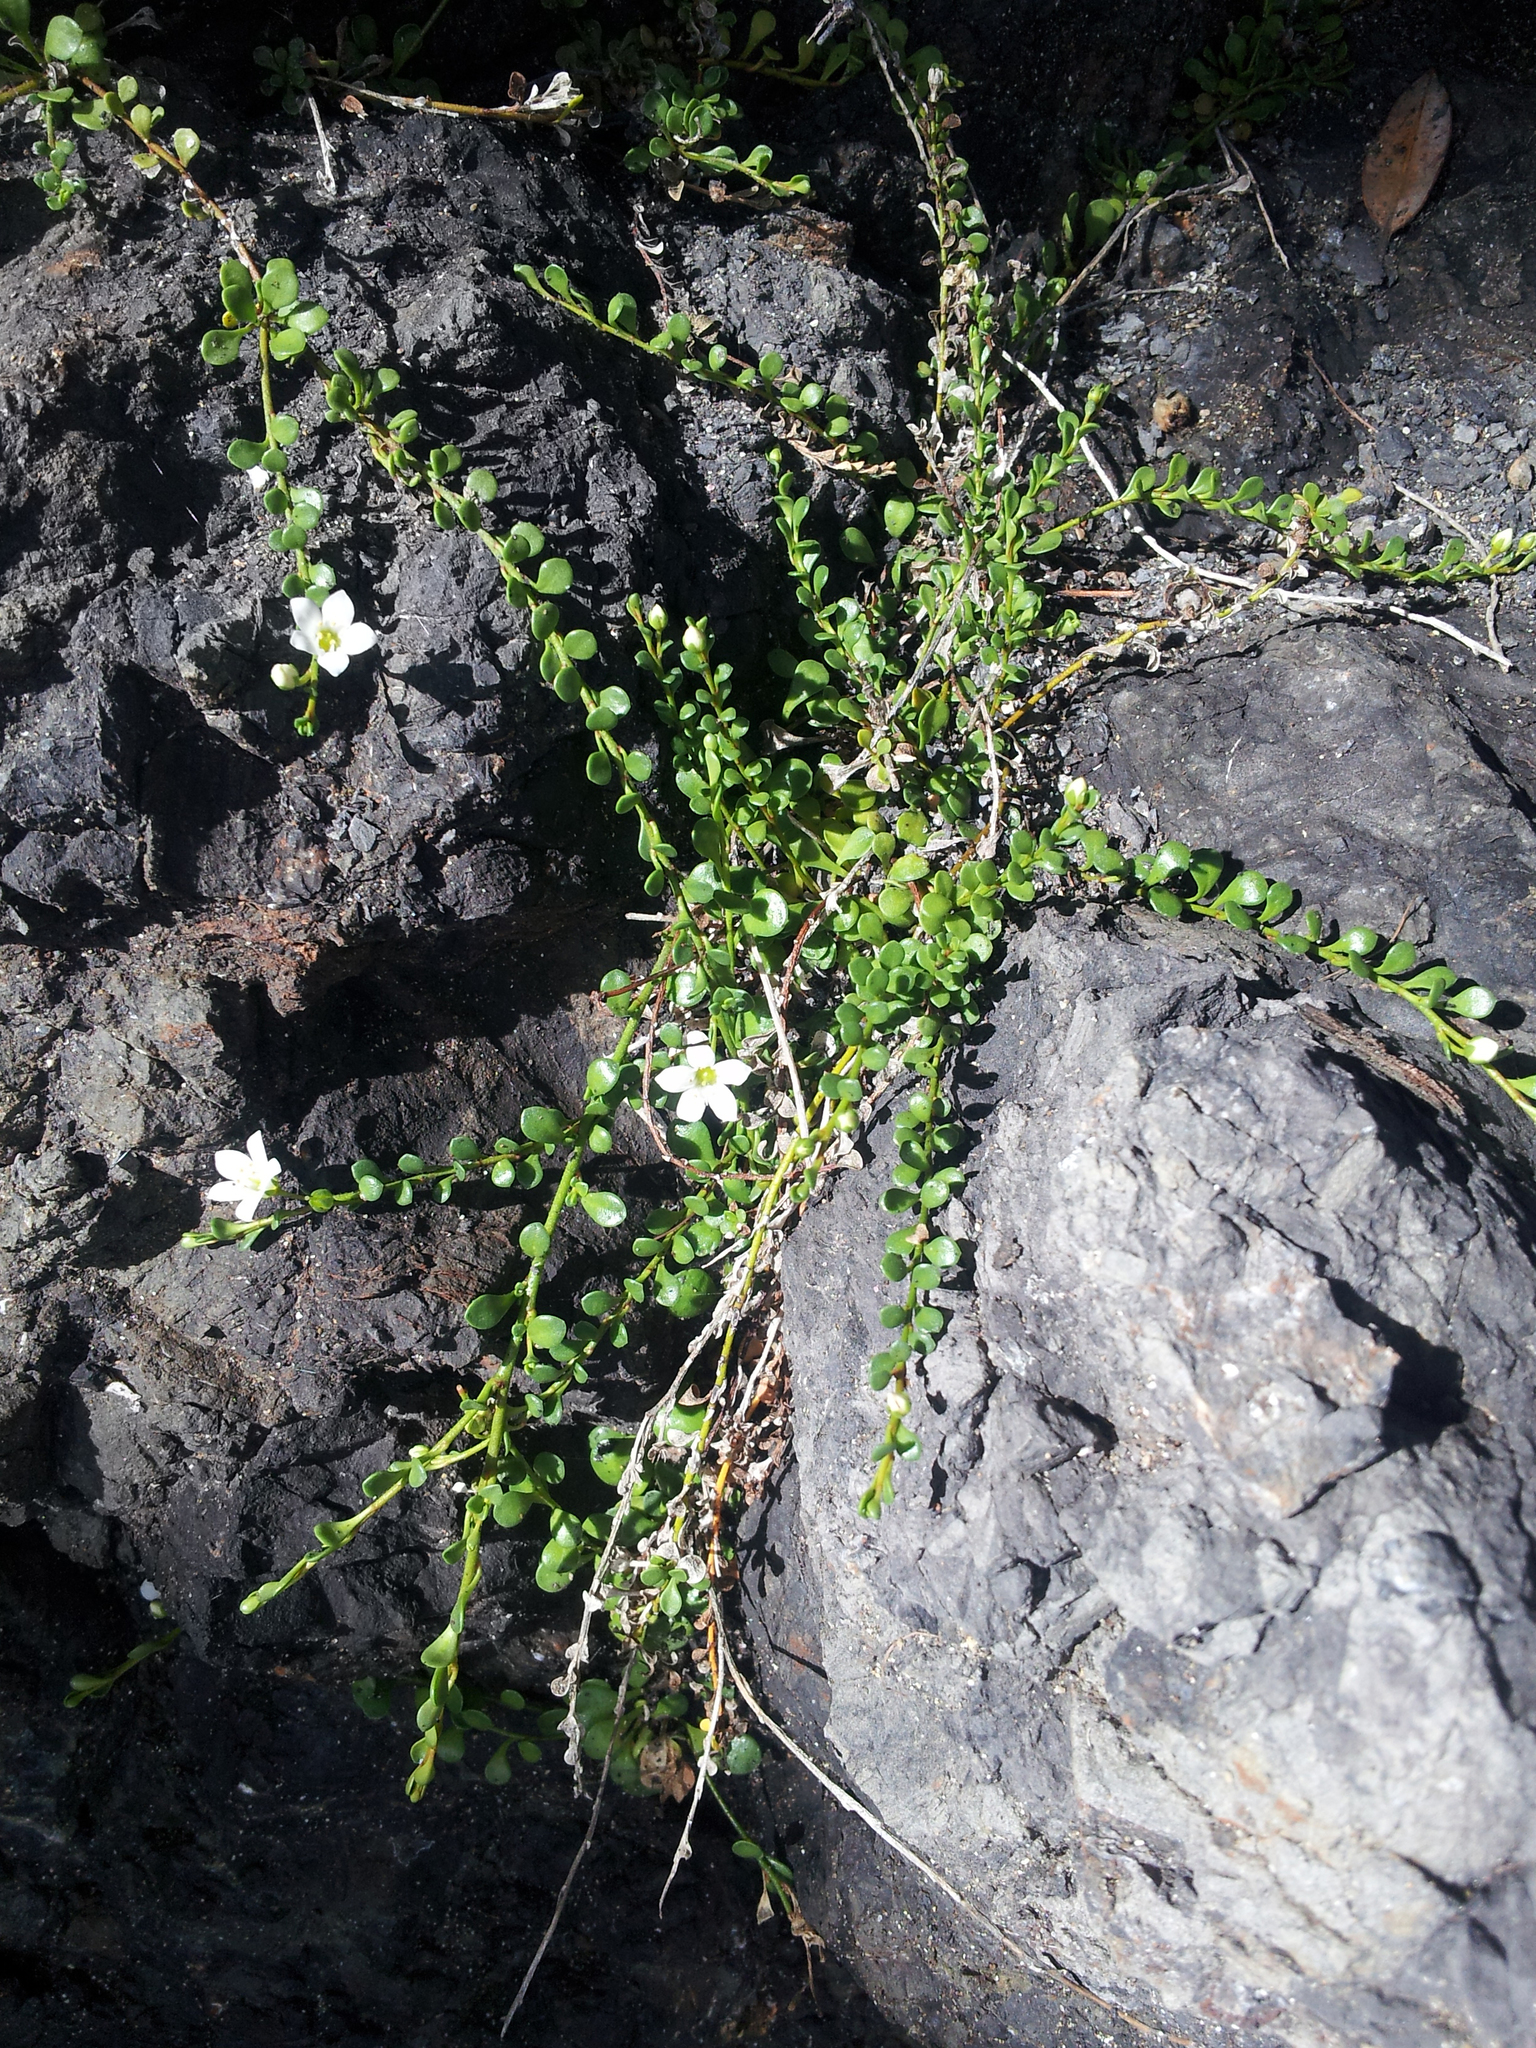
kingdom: Plantae
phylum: Tracheophyta
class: Magnoliopsida
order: Ericales
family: Primulaceae
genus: Samolus
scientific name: Samolus repens
